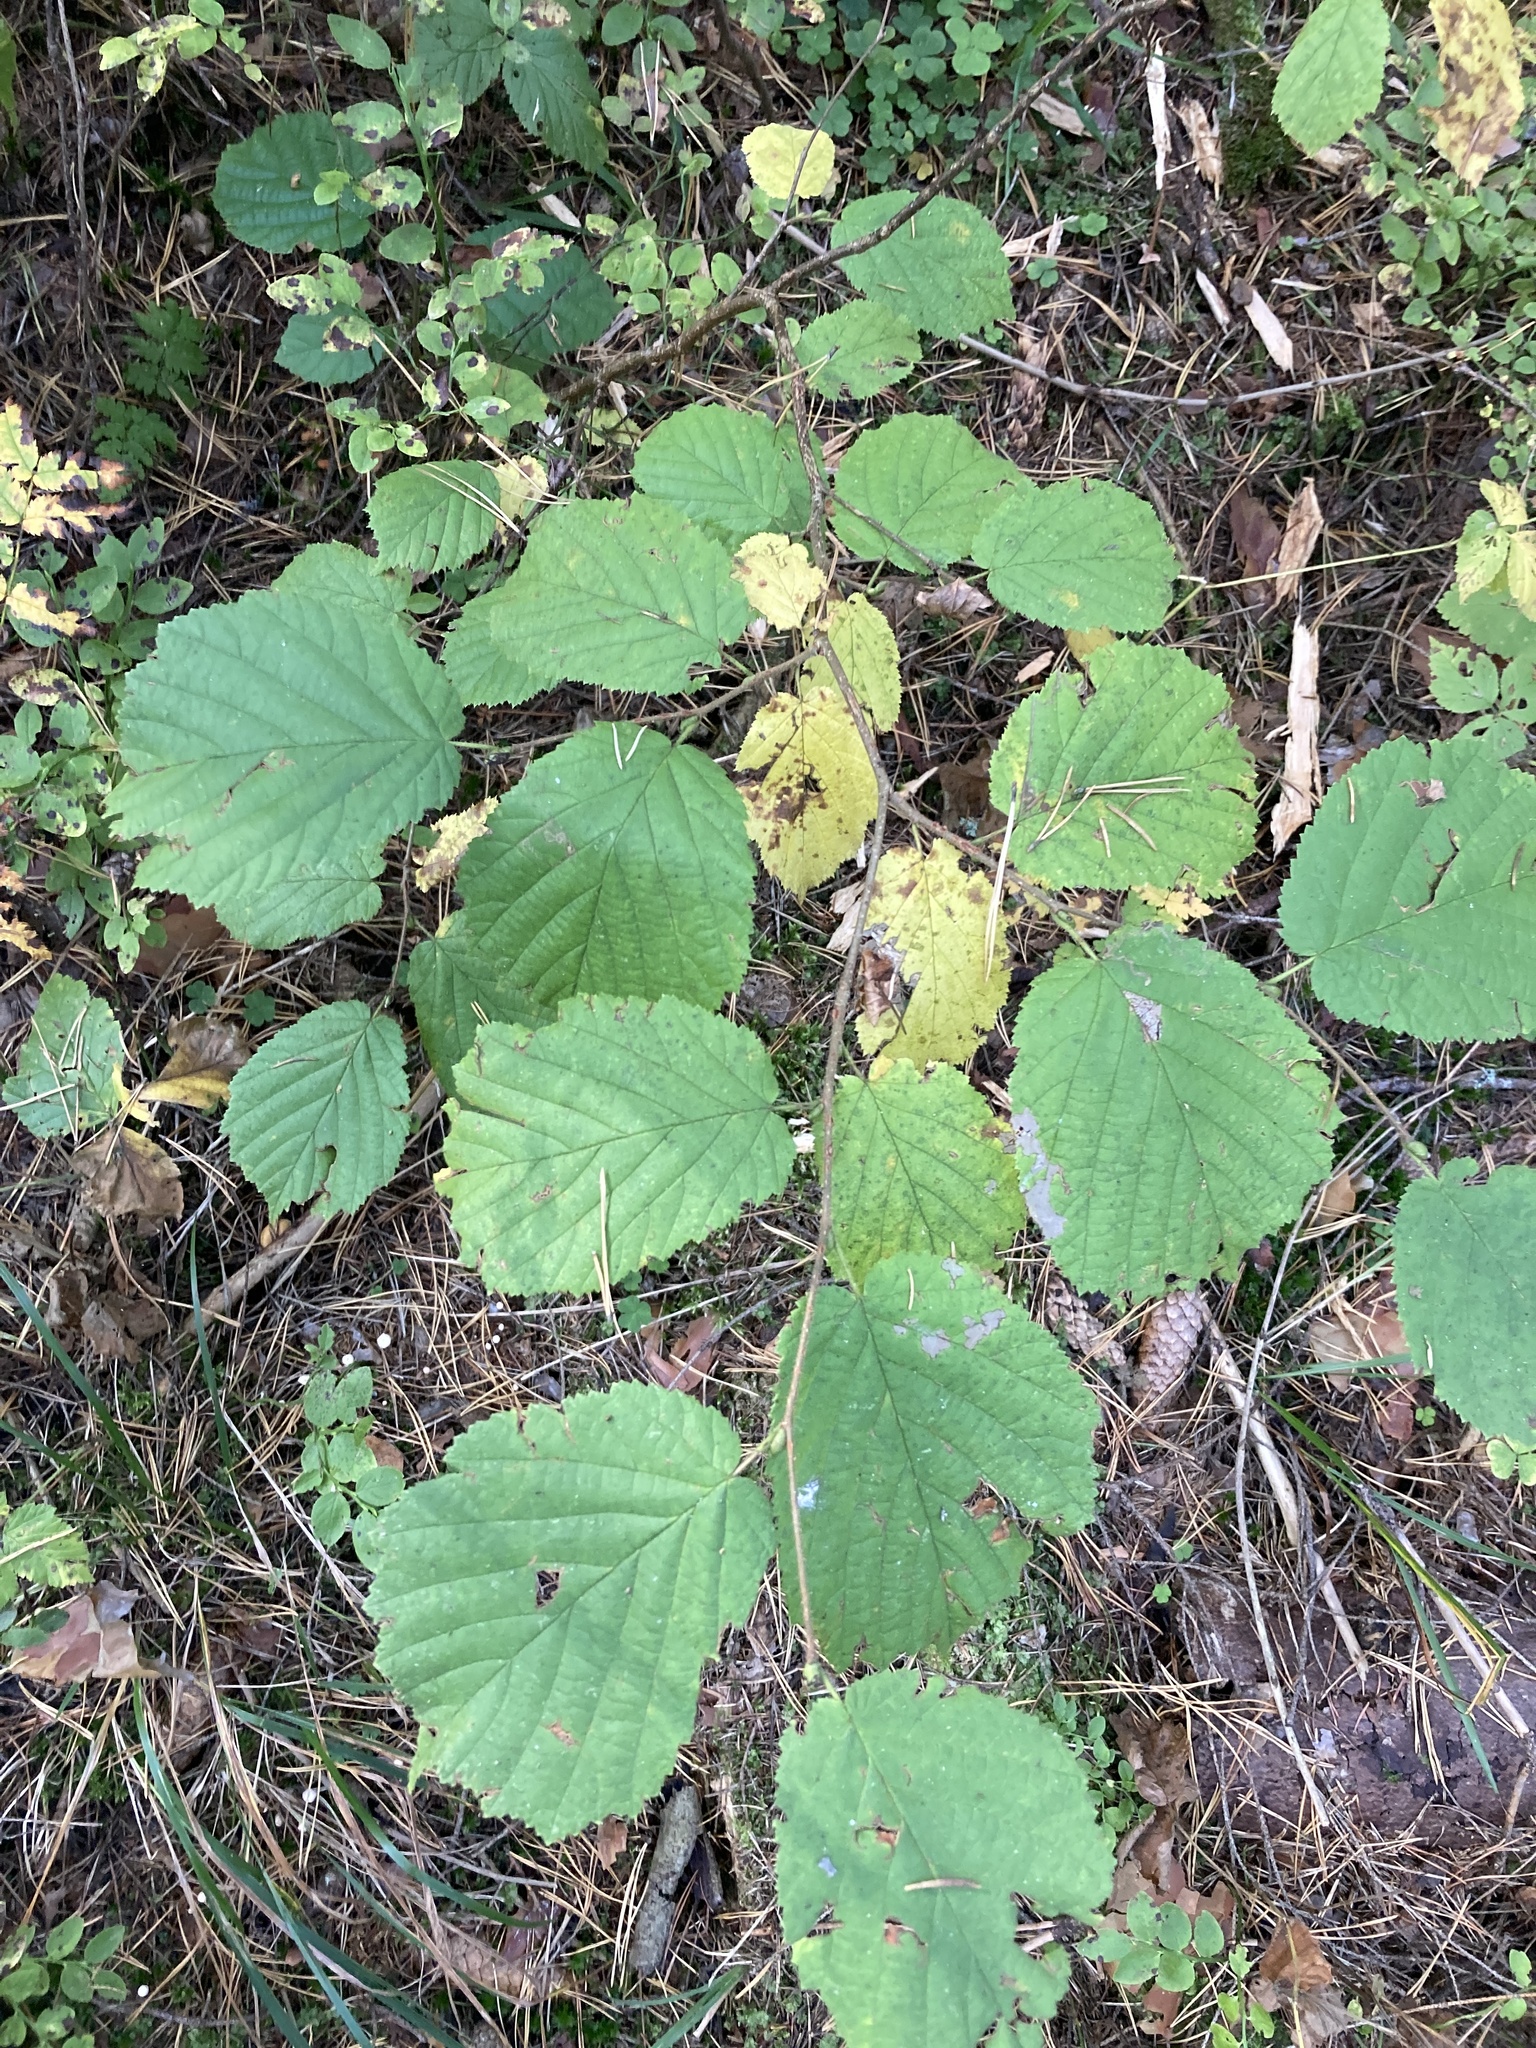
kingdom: Plantae
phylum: Tracheophyta
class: Magnoliopsida
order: Fagales
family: Betulaceae
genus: Corylus
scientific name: Corylus avellana
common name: European hazel
